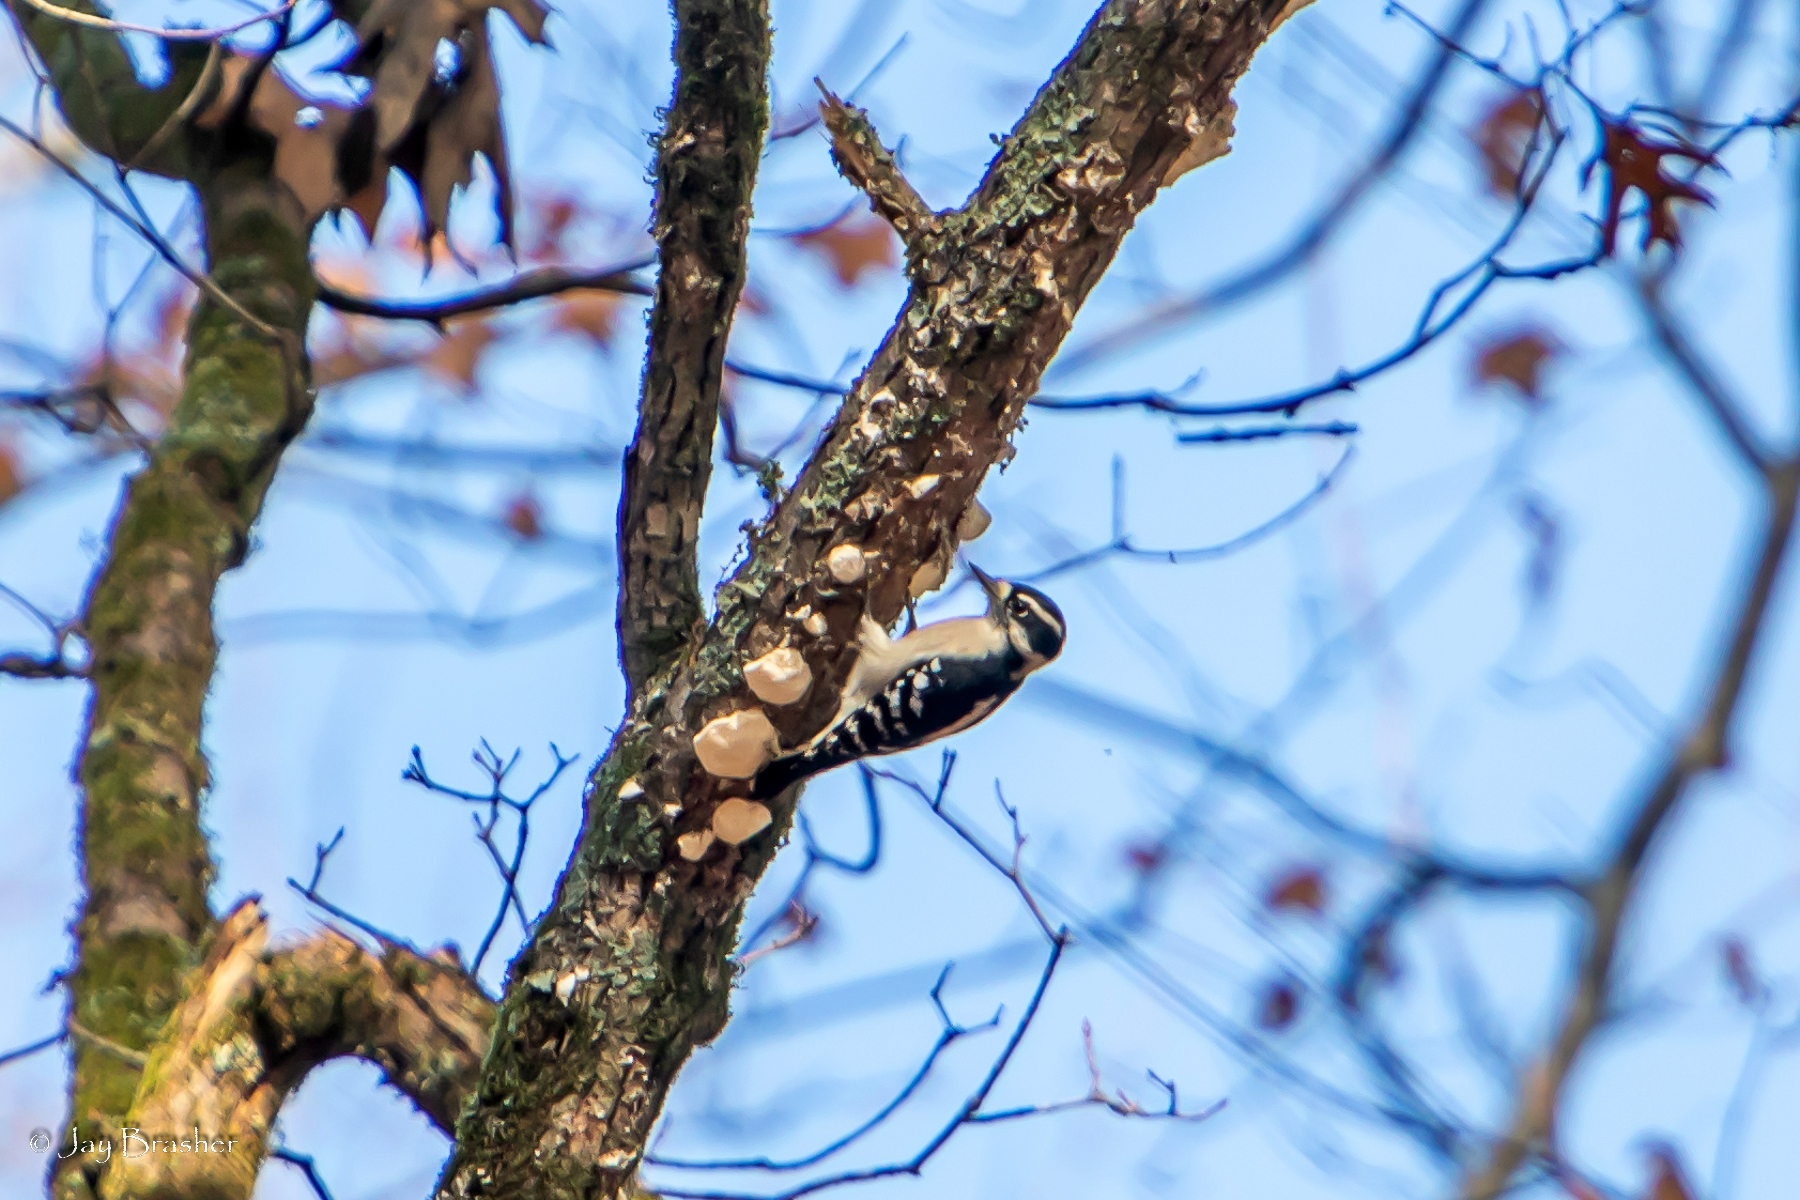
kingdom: Animalia
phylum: Chordata
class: Aves
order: Piciformes
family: Picidae
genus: Dryobates
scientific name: Dryobates pubescens
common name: Downy woodpecker
